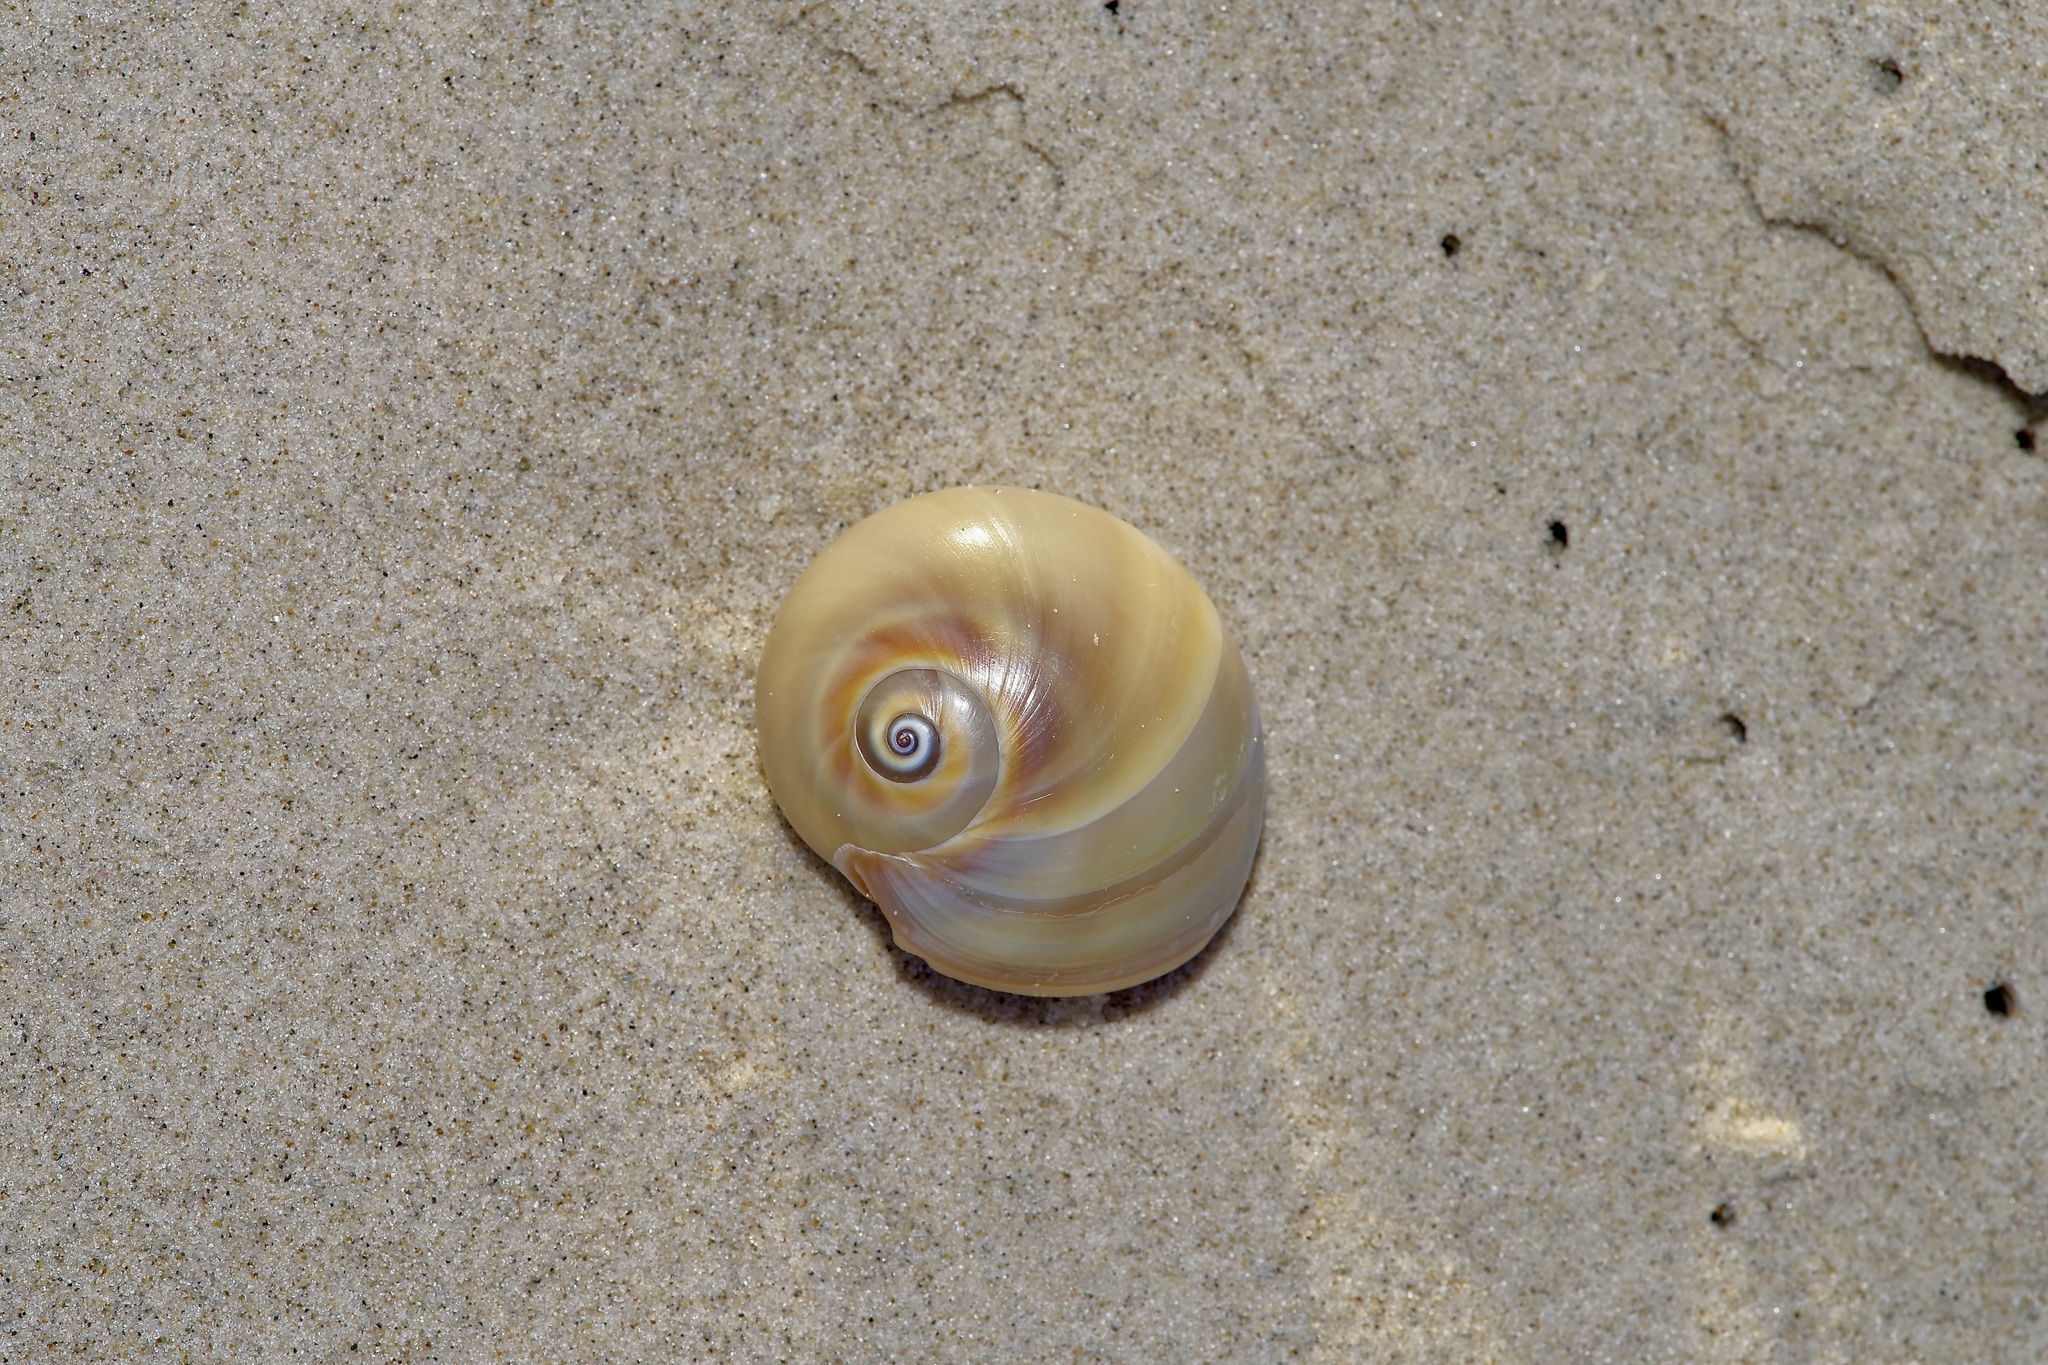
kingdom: Animalia
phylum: Mollusca
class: Gastropoda
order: Littorinimorpha
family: Naticidae
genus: Neverita
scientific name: Neverita duplicata
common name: Lobed moonsnail
